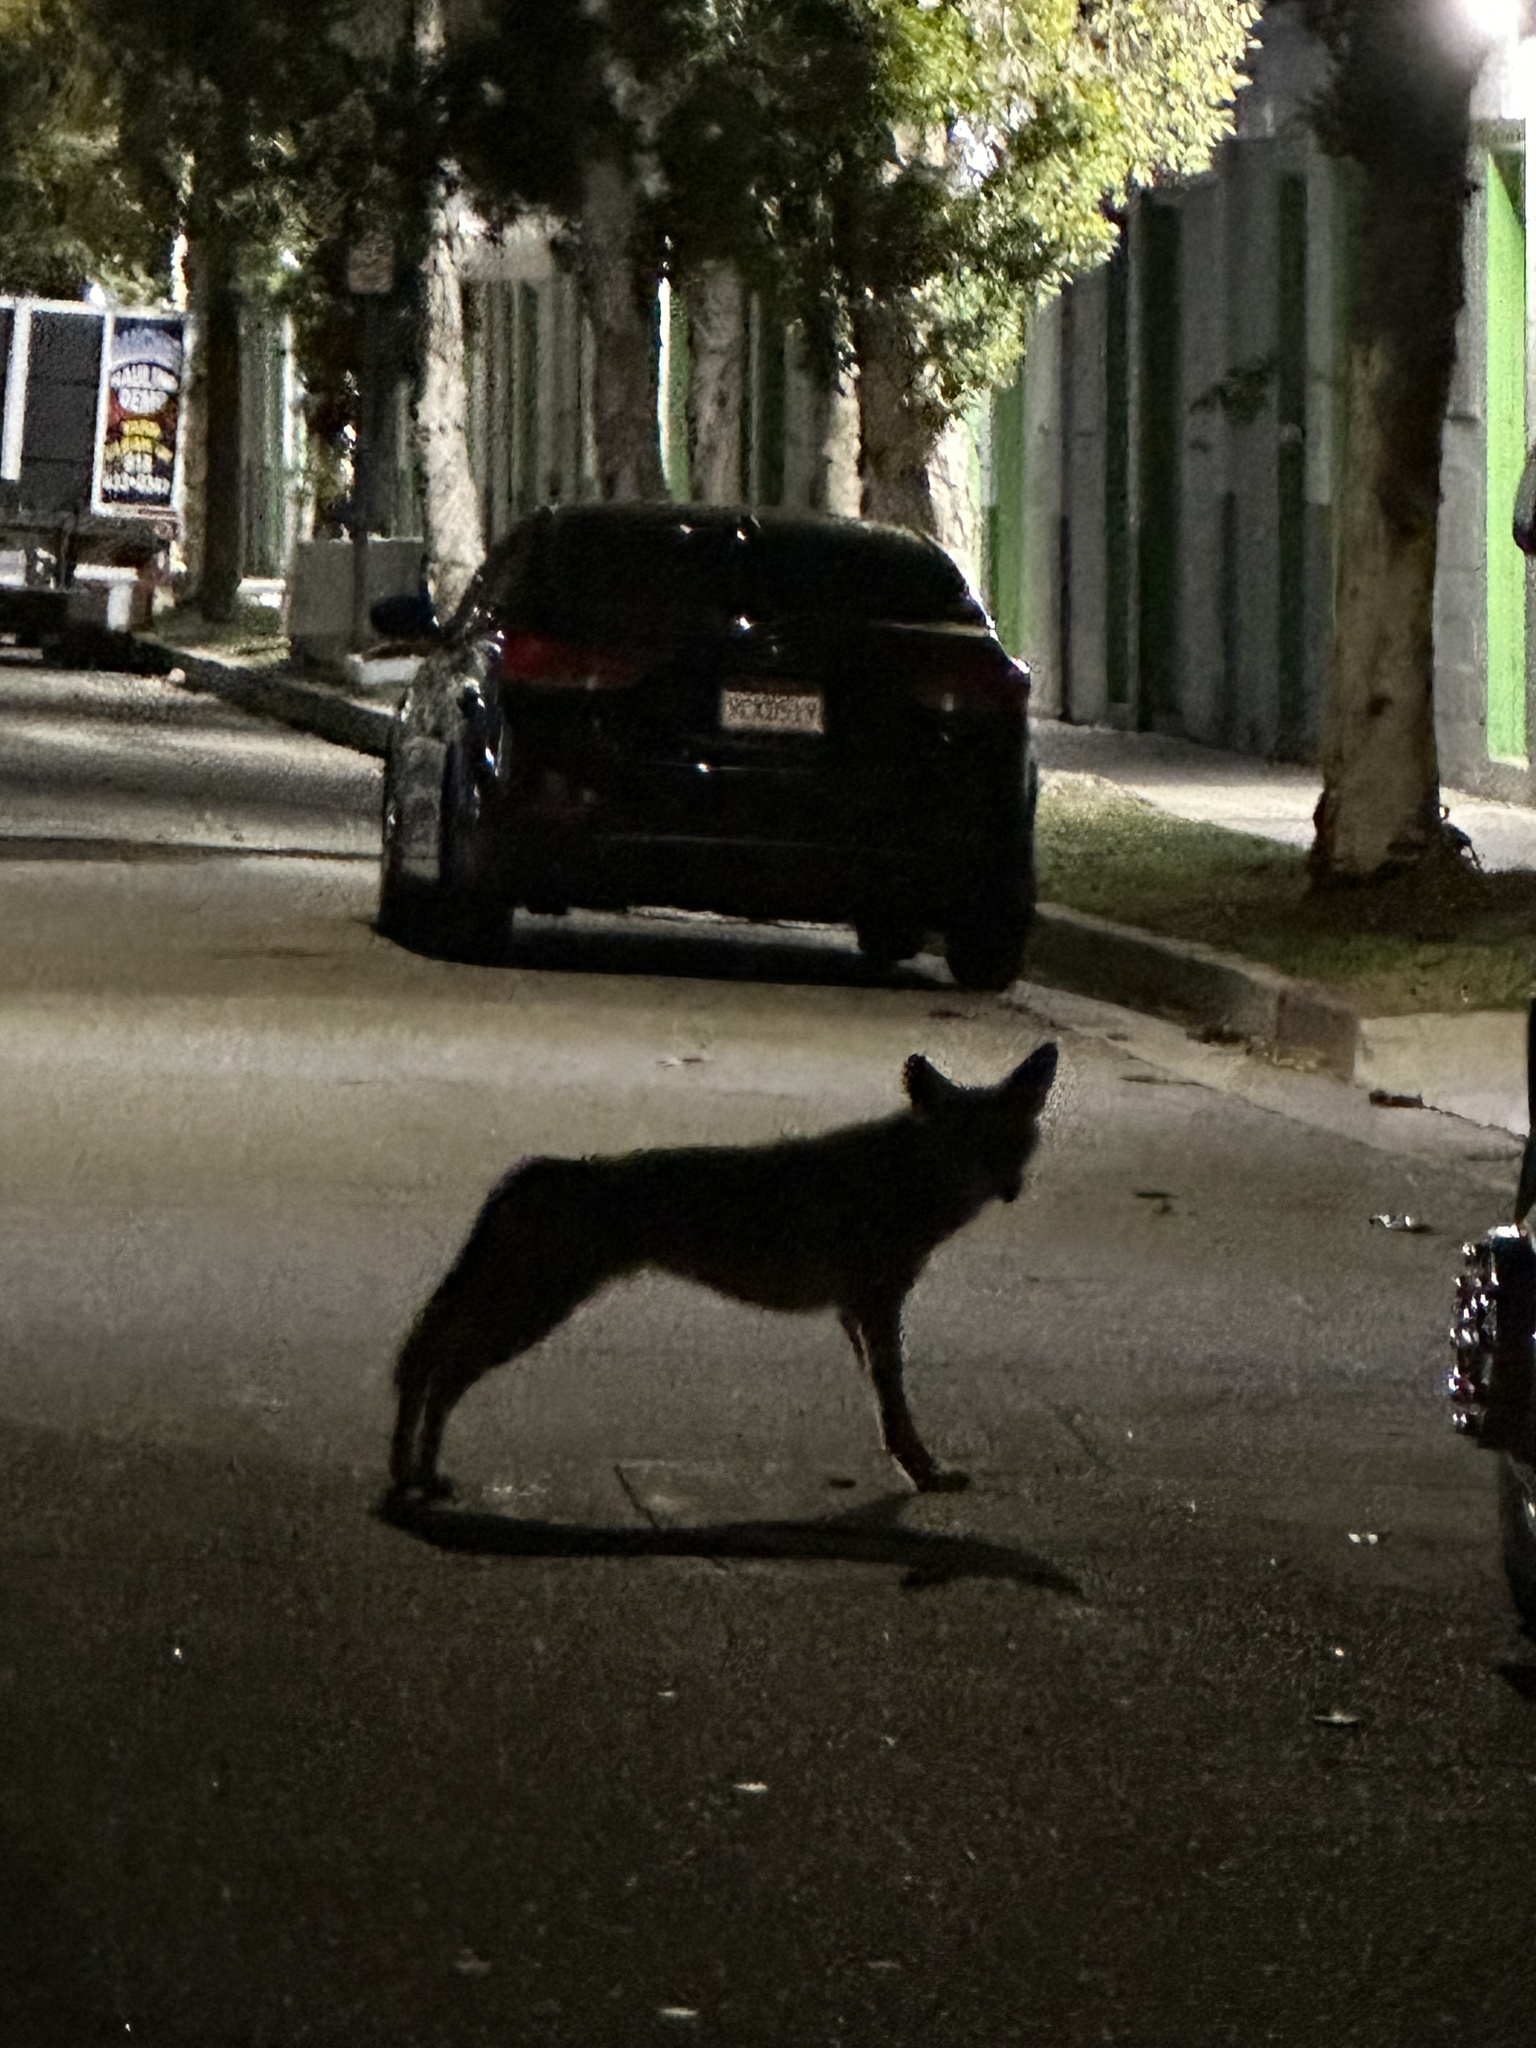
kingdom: Animalia
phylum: Chordata
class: Mammalia
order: Carnivora
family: Canidae
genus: Canis
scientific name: Canis latrans
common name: Coyote
